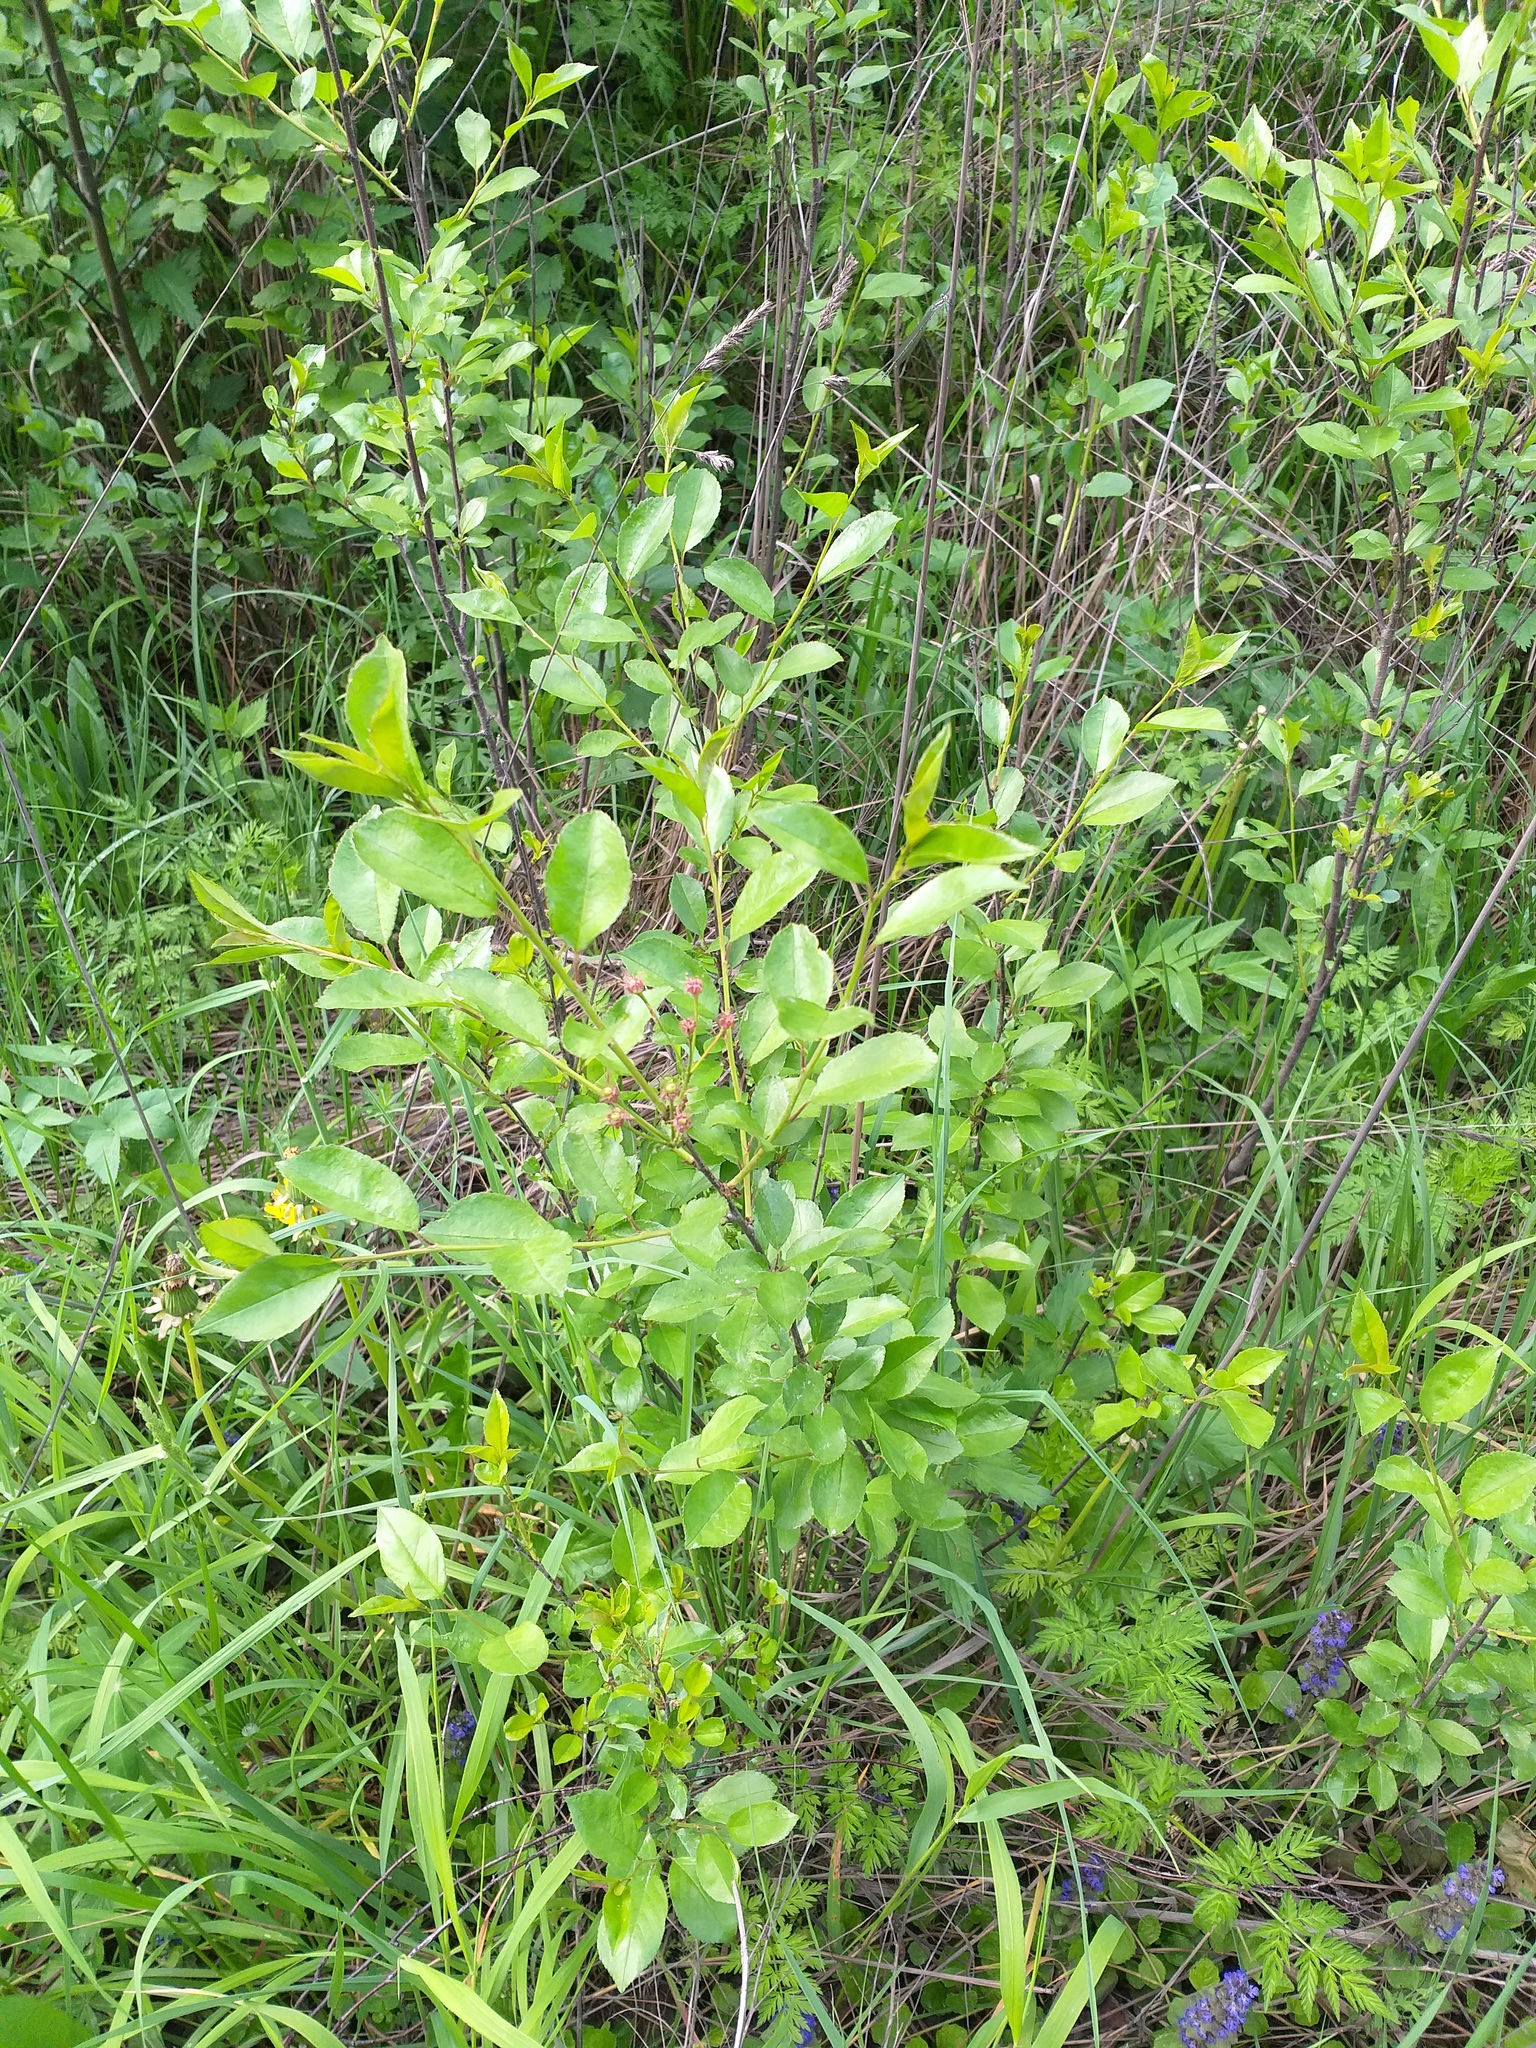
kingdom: Plantae
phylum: Tracheophyta
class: Magnoliopsida
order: Rosales
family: Rosaceae
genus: Prunus
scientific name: Prunus cerasus
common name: Morello cherry
